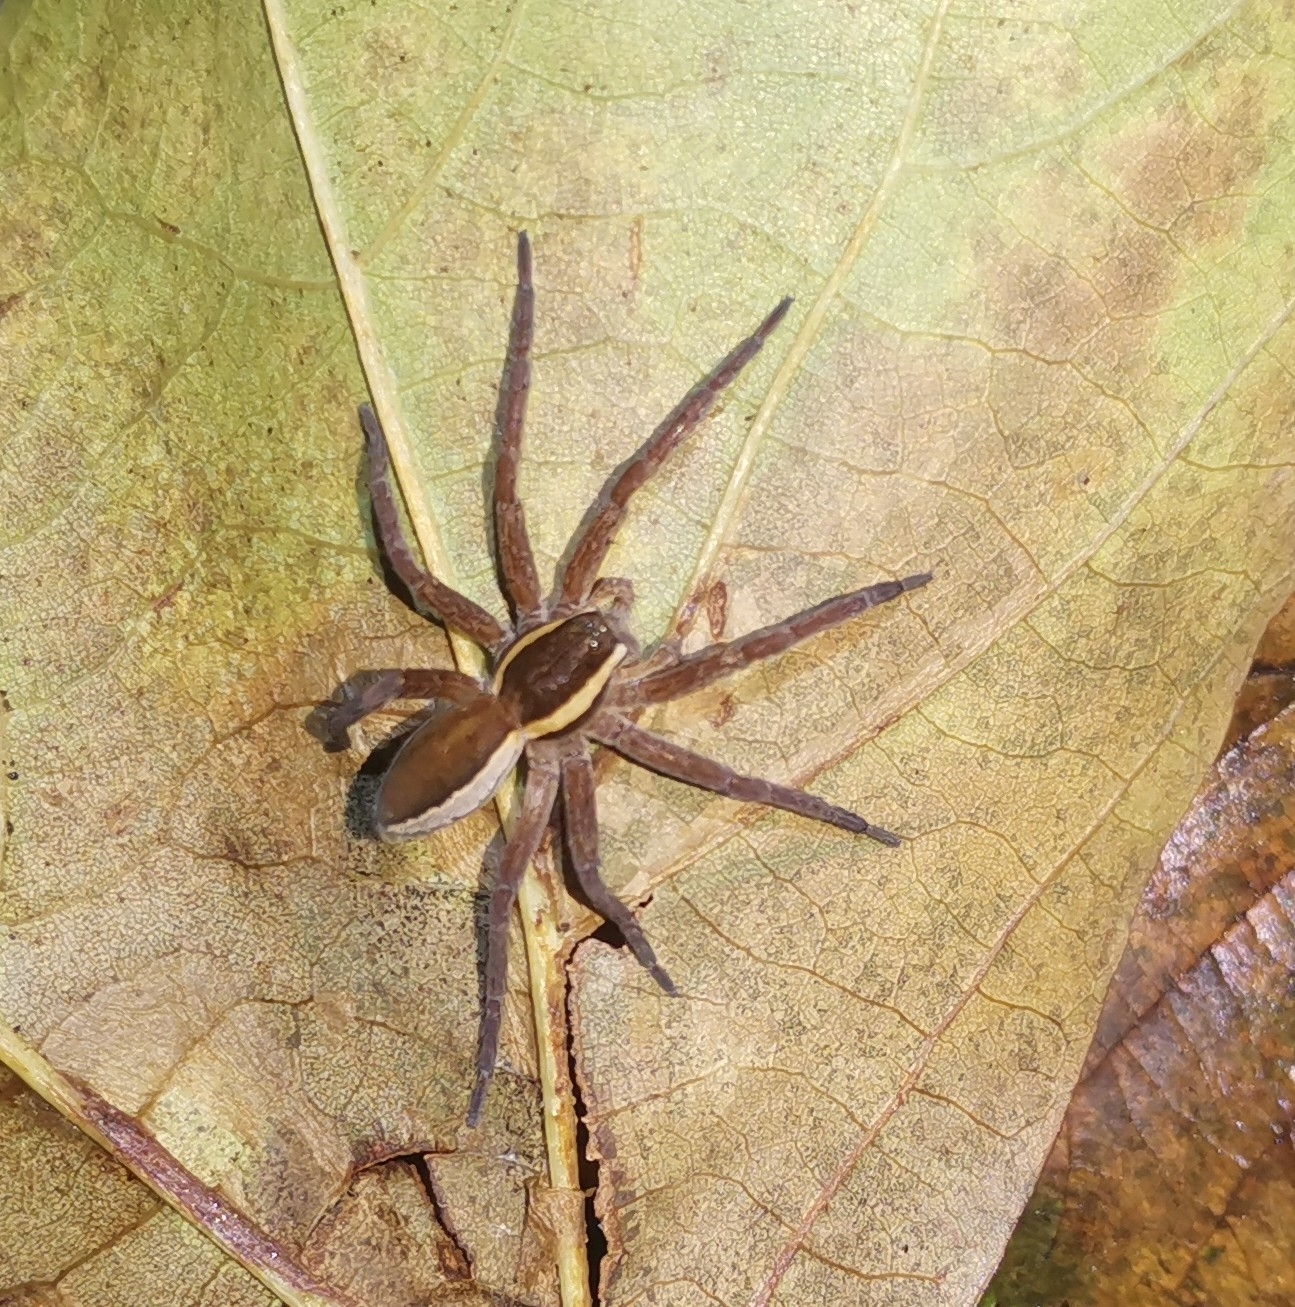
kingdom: Animalia
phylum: Arthropoda
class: Arachnida
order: Araneae
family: Pisauridae
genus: Dolomedes
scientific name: Dolomedes
